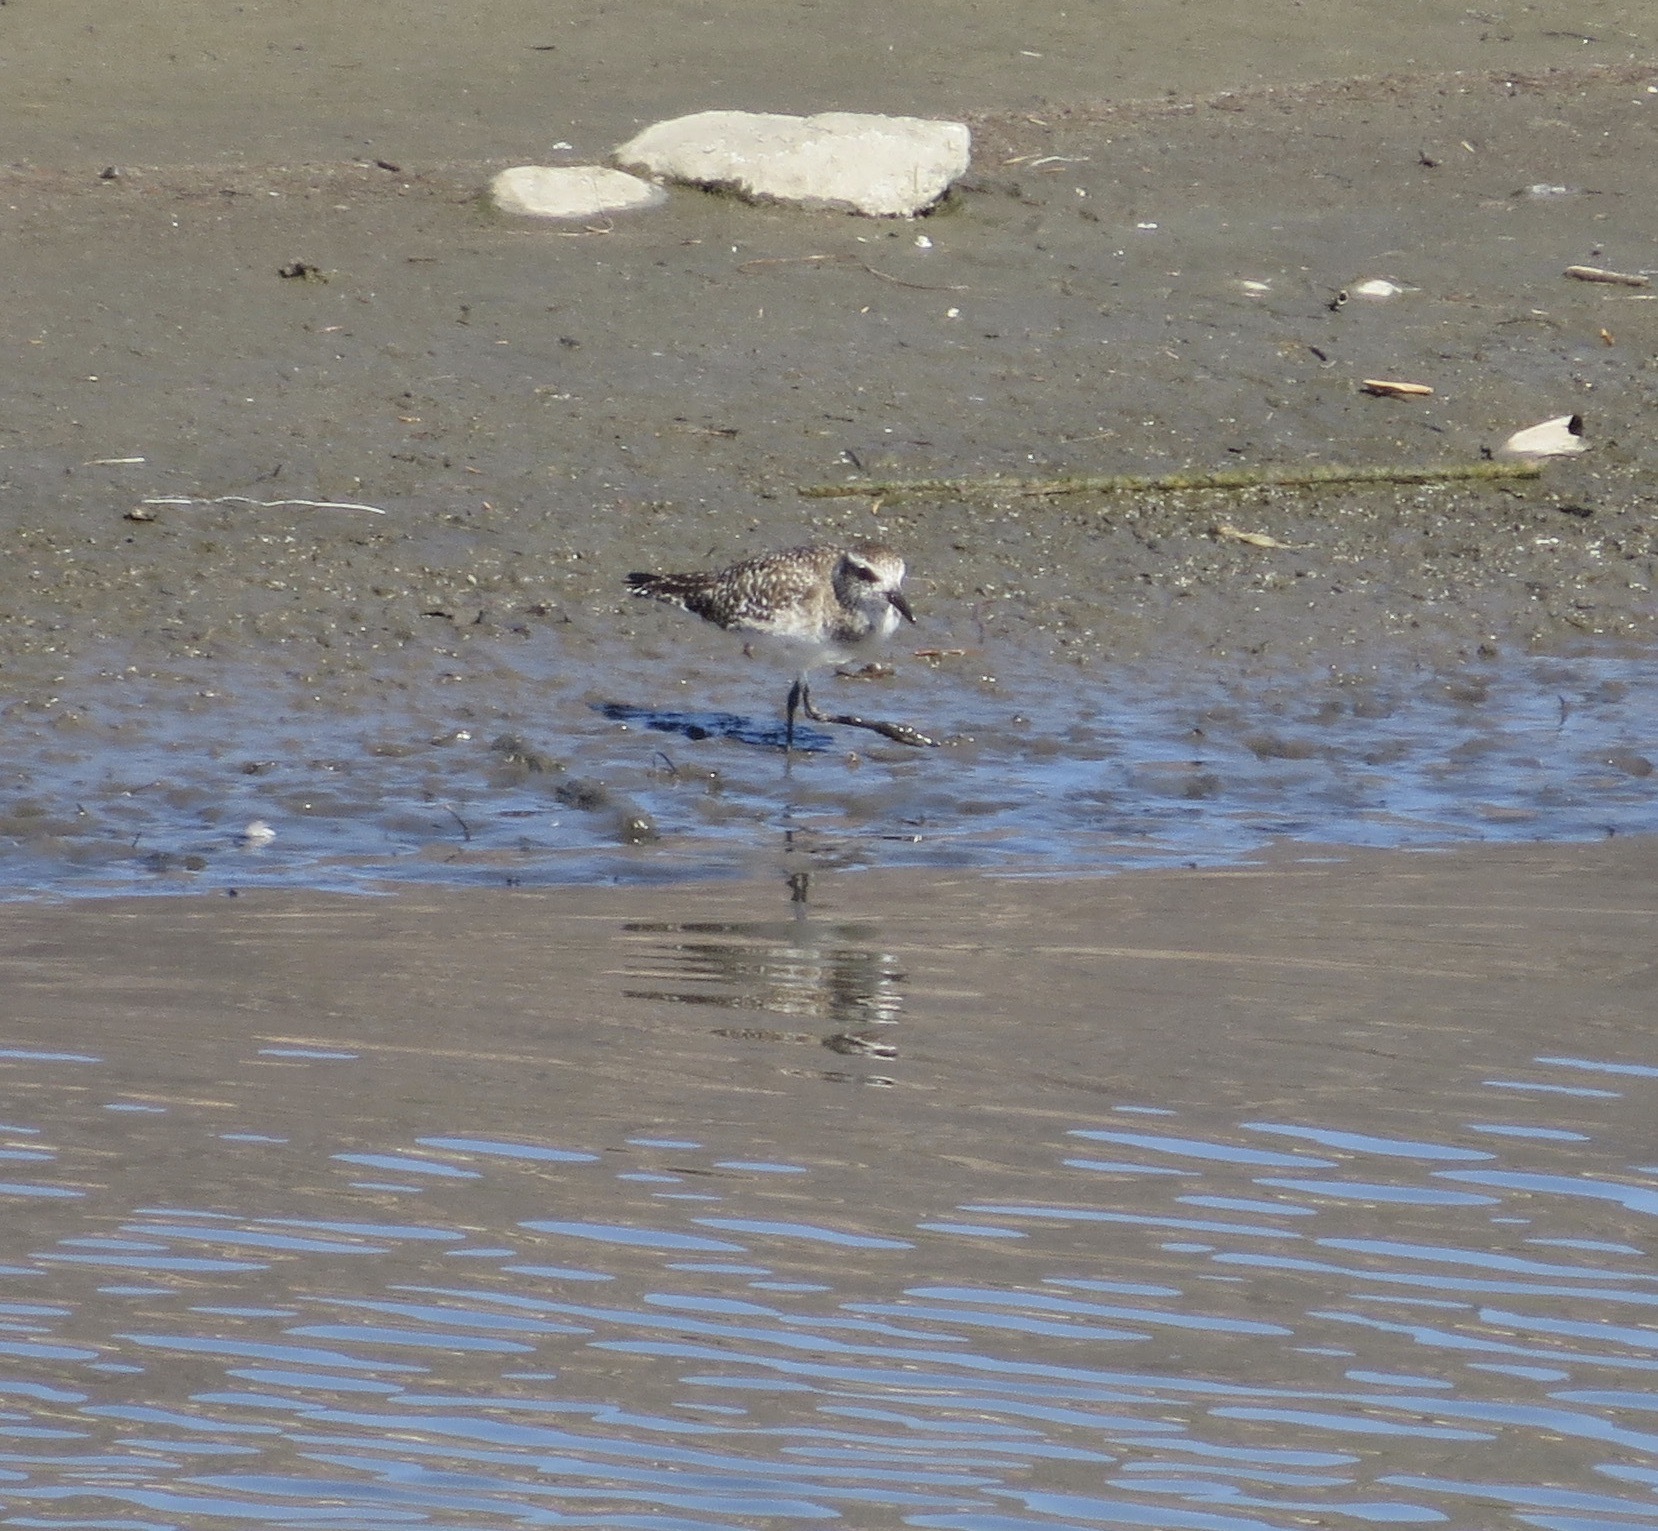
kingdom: Animalia
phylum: Chordata
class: Aves
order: Charadriiformes
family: Charadriidae
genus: Pluvialis
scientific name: Pluvialis squatarola
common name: Grey plover
